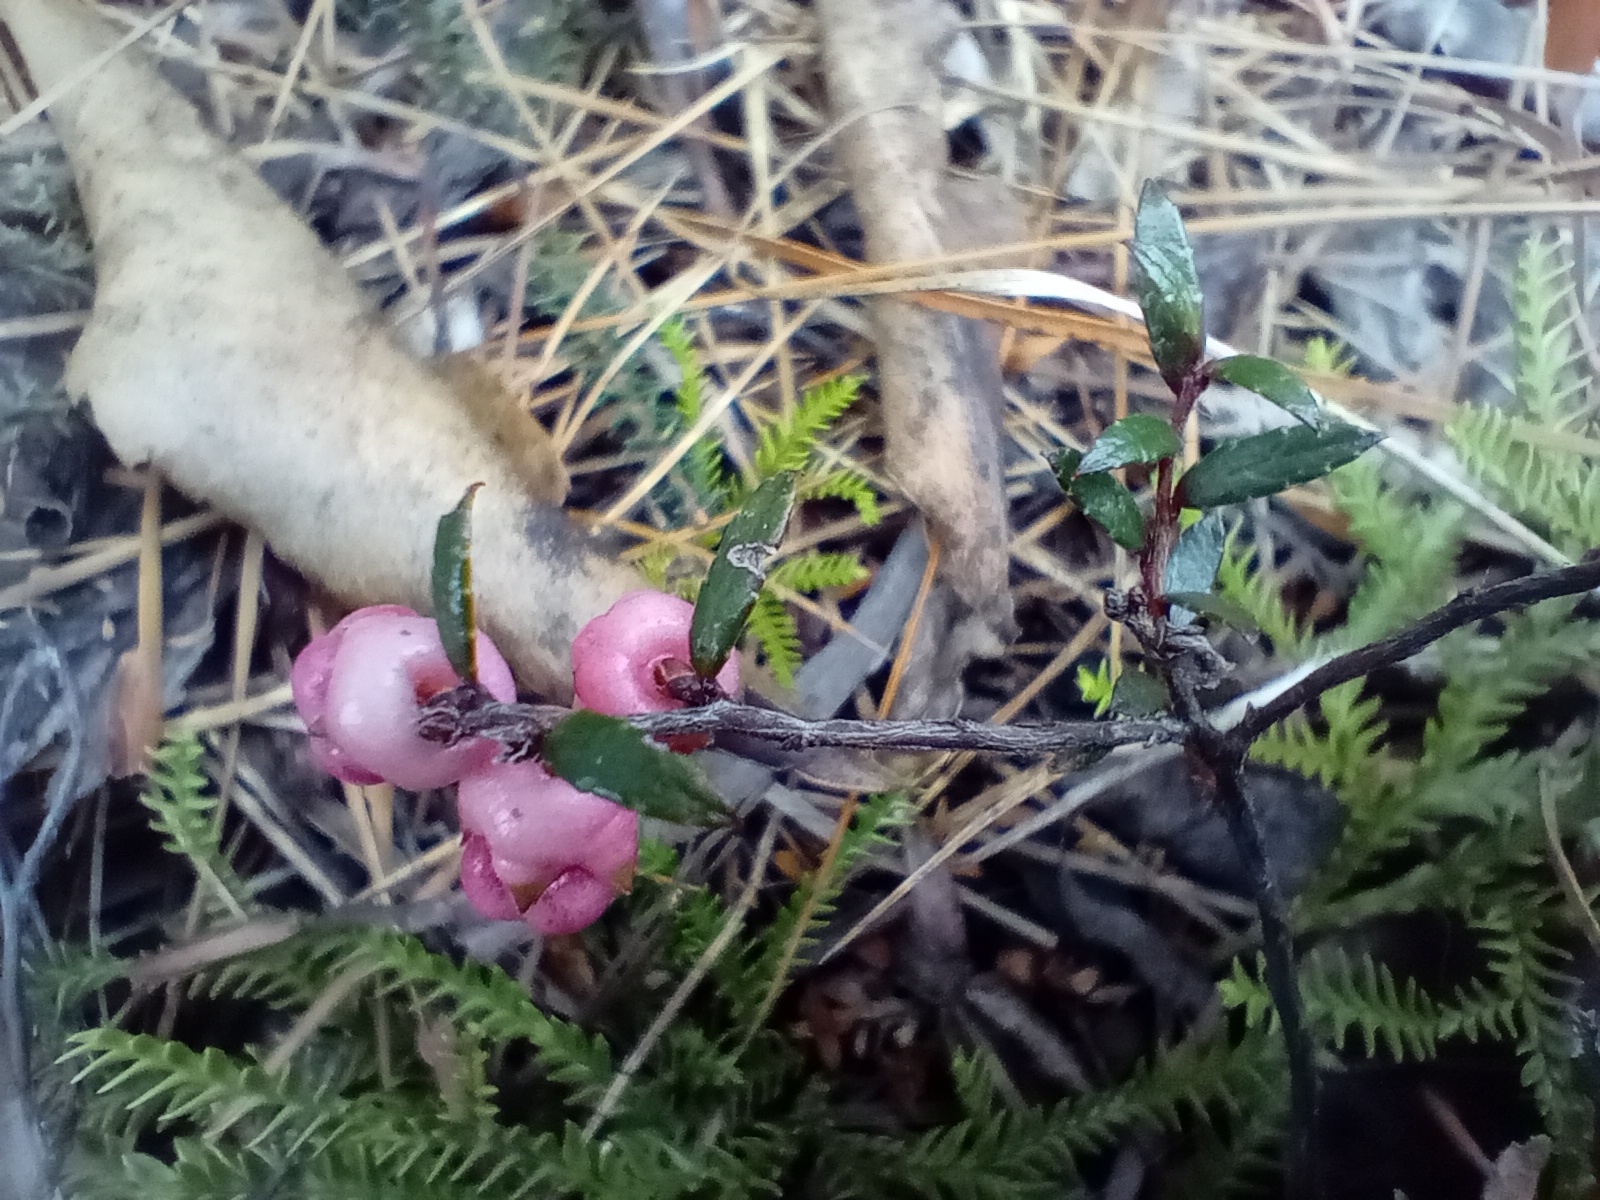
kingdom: Plantae
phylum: Tracheophyta
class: Magnoliopsida
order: Ericales
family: Ericaceae
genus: Gaultheria
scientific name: Gaultheria macrostigma
